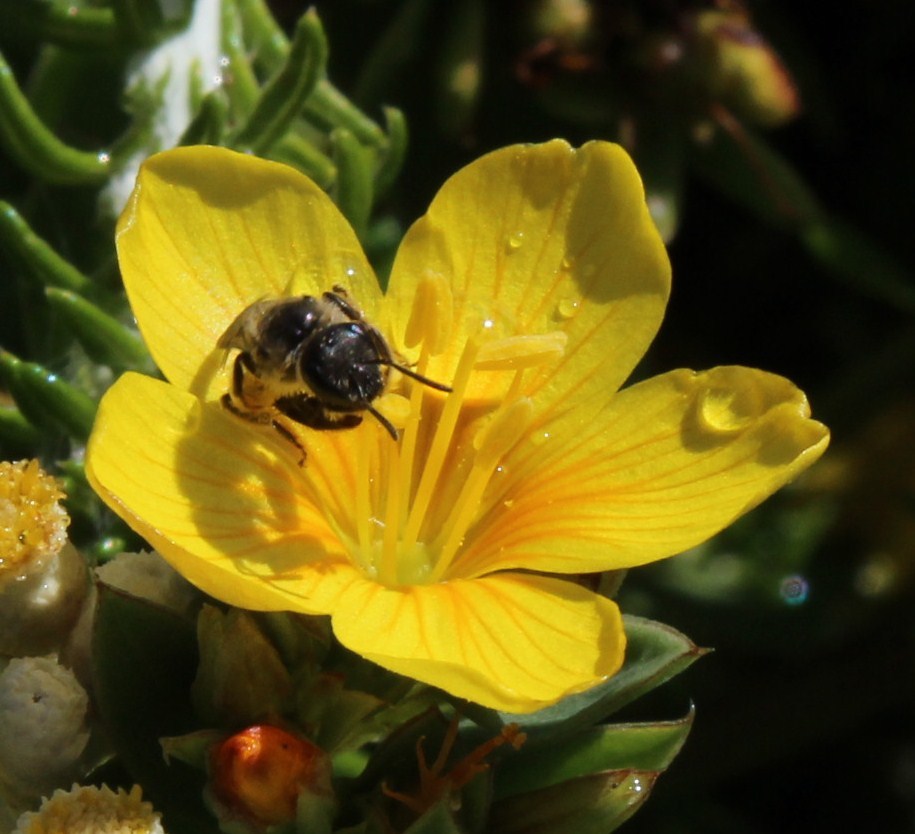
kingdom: Plantae
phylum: Tracheophyta
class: Magnoliopsida
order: Malpighiales
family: Linaceae
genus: Linum
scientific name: Linum aethiopicum
